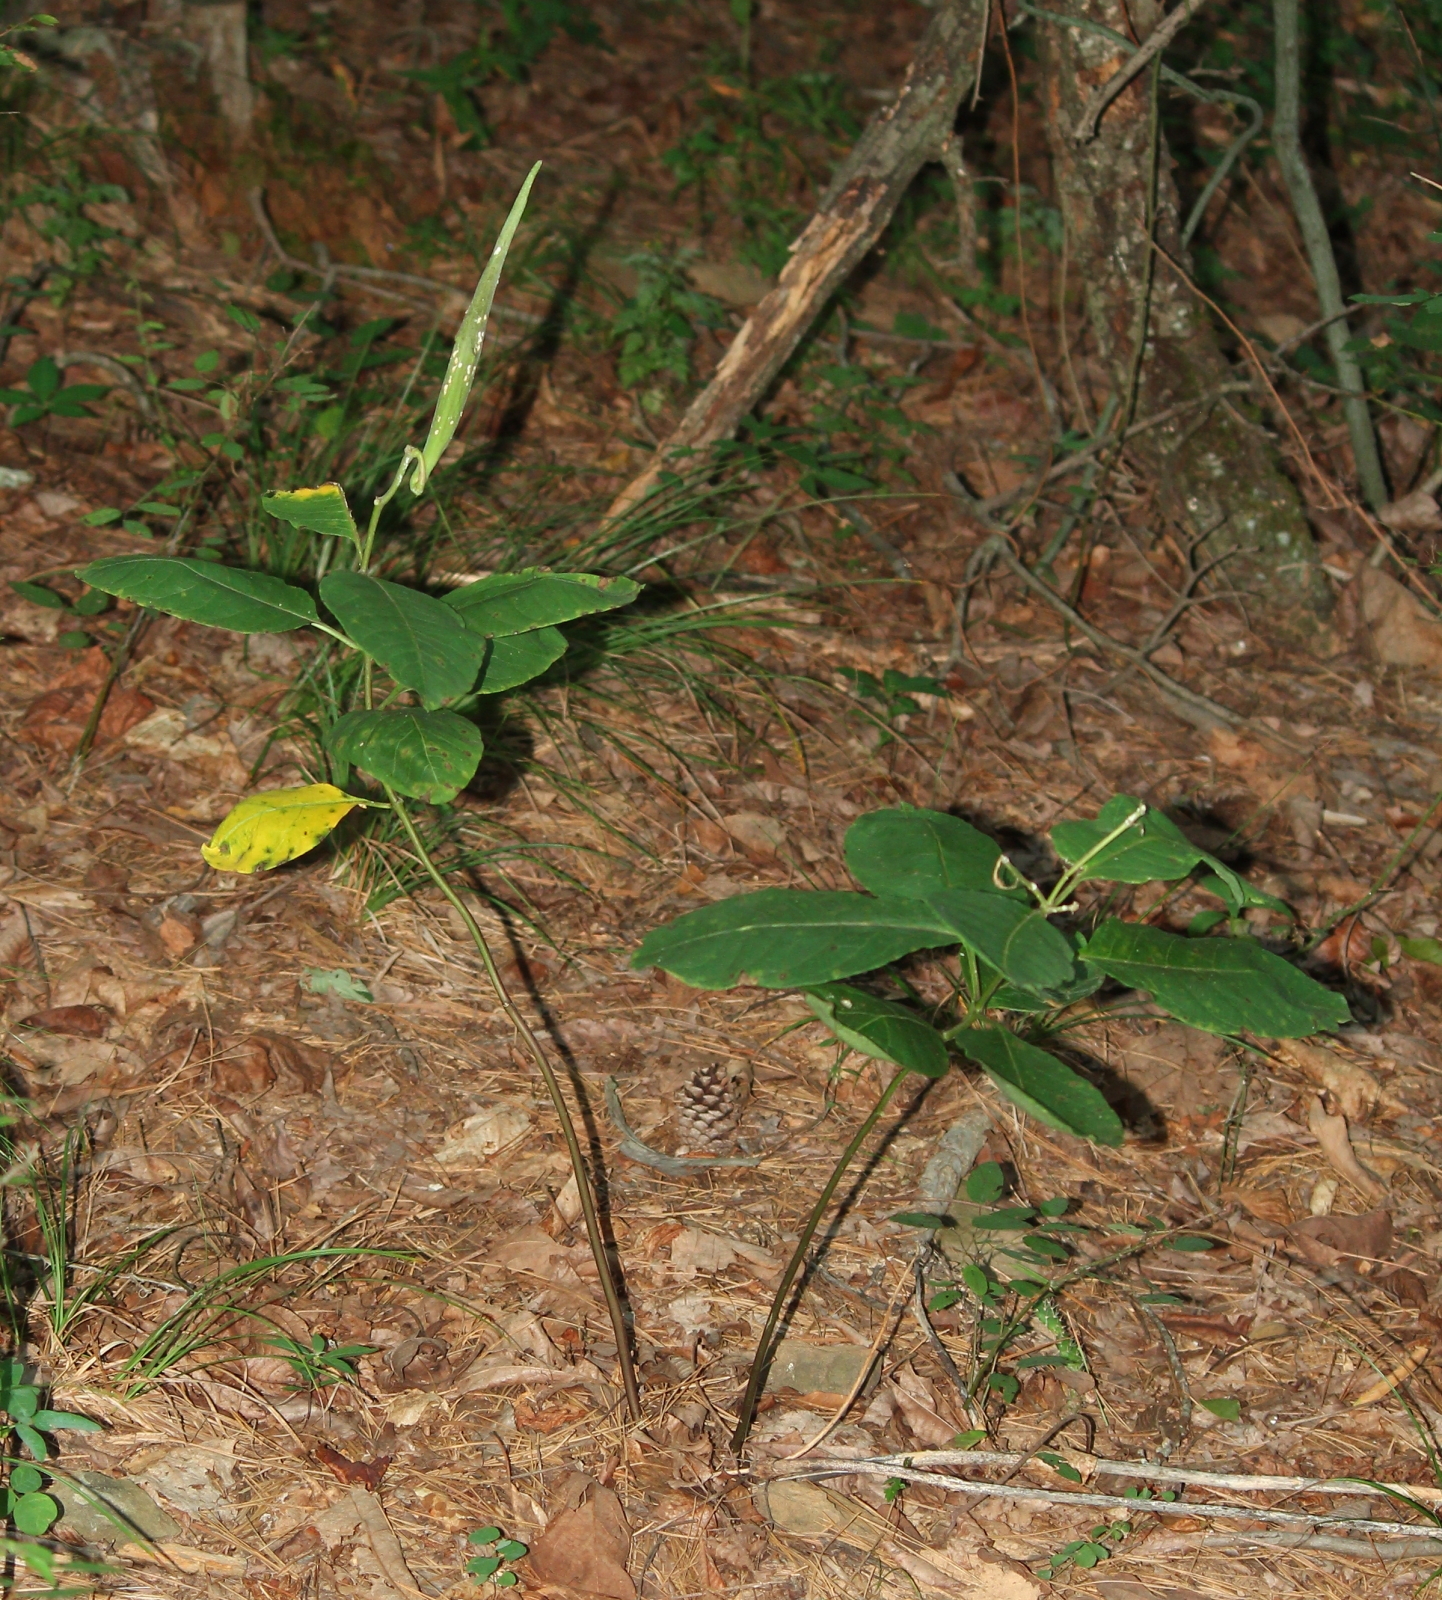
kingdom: Plantae
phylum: Tracheophyta
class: Magnoliopsida
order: Gentianales
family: Apocynaceae
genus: Asclepias
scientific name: Asclepias variegata
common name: Variegated milkweed
